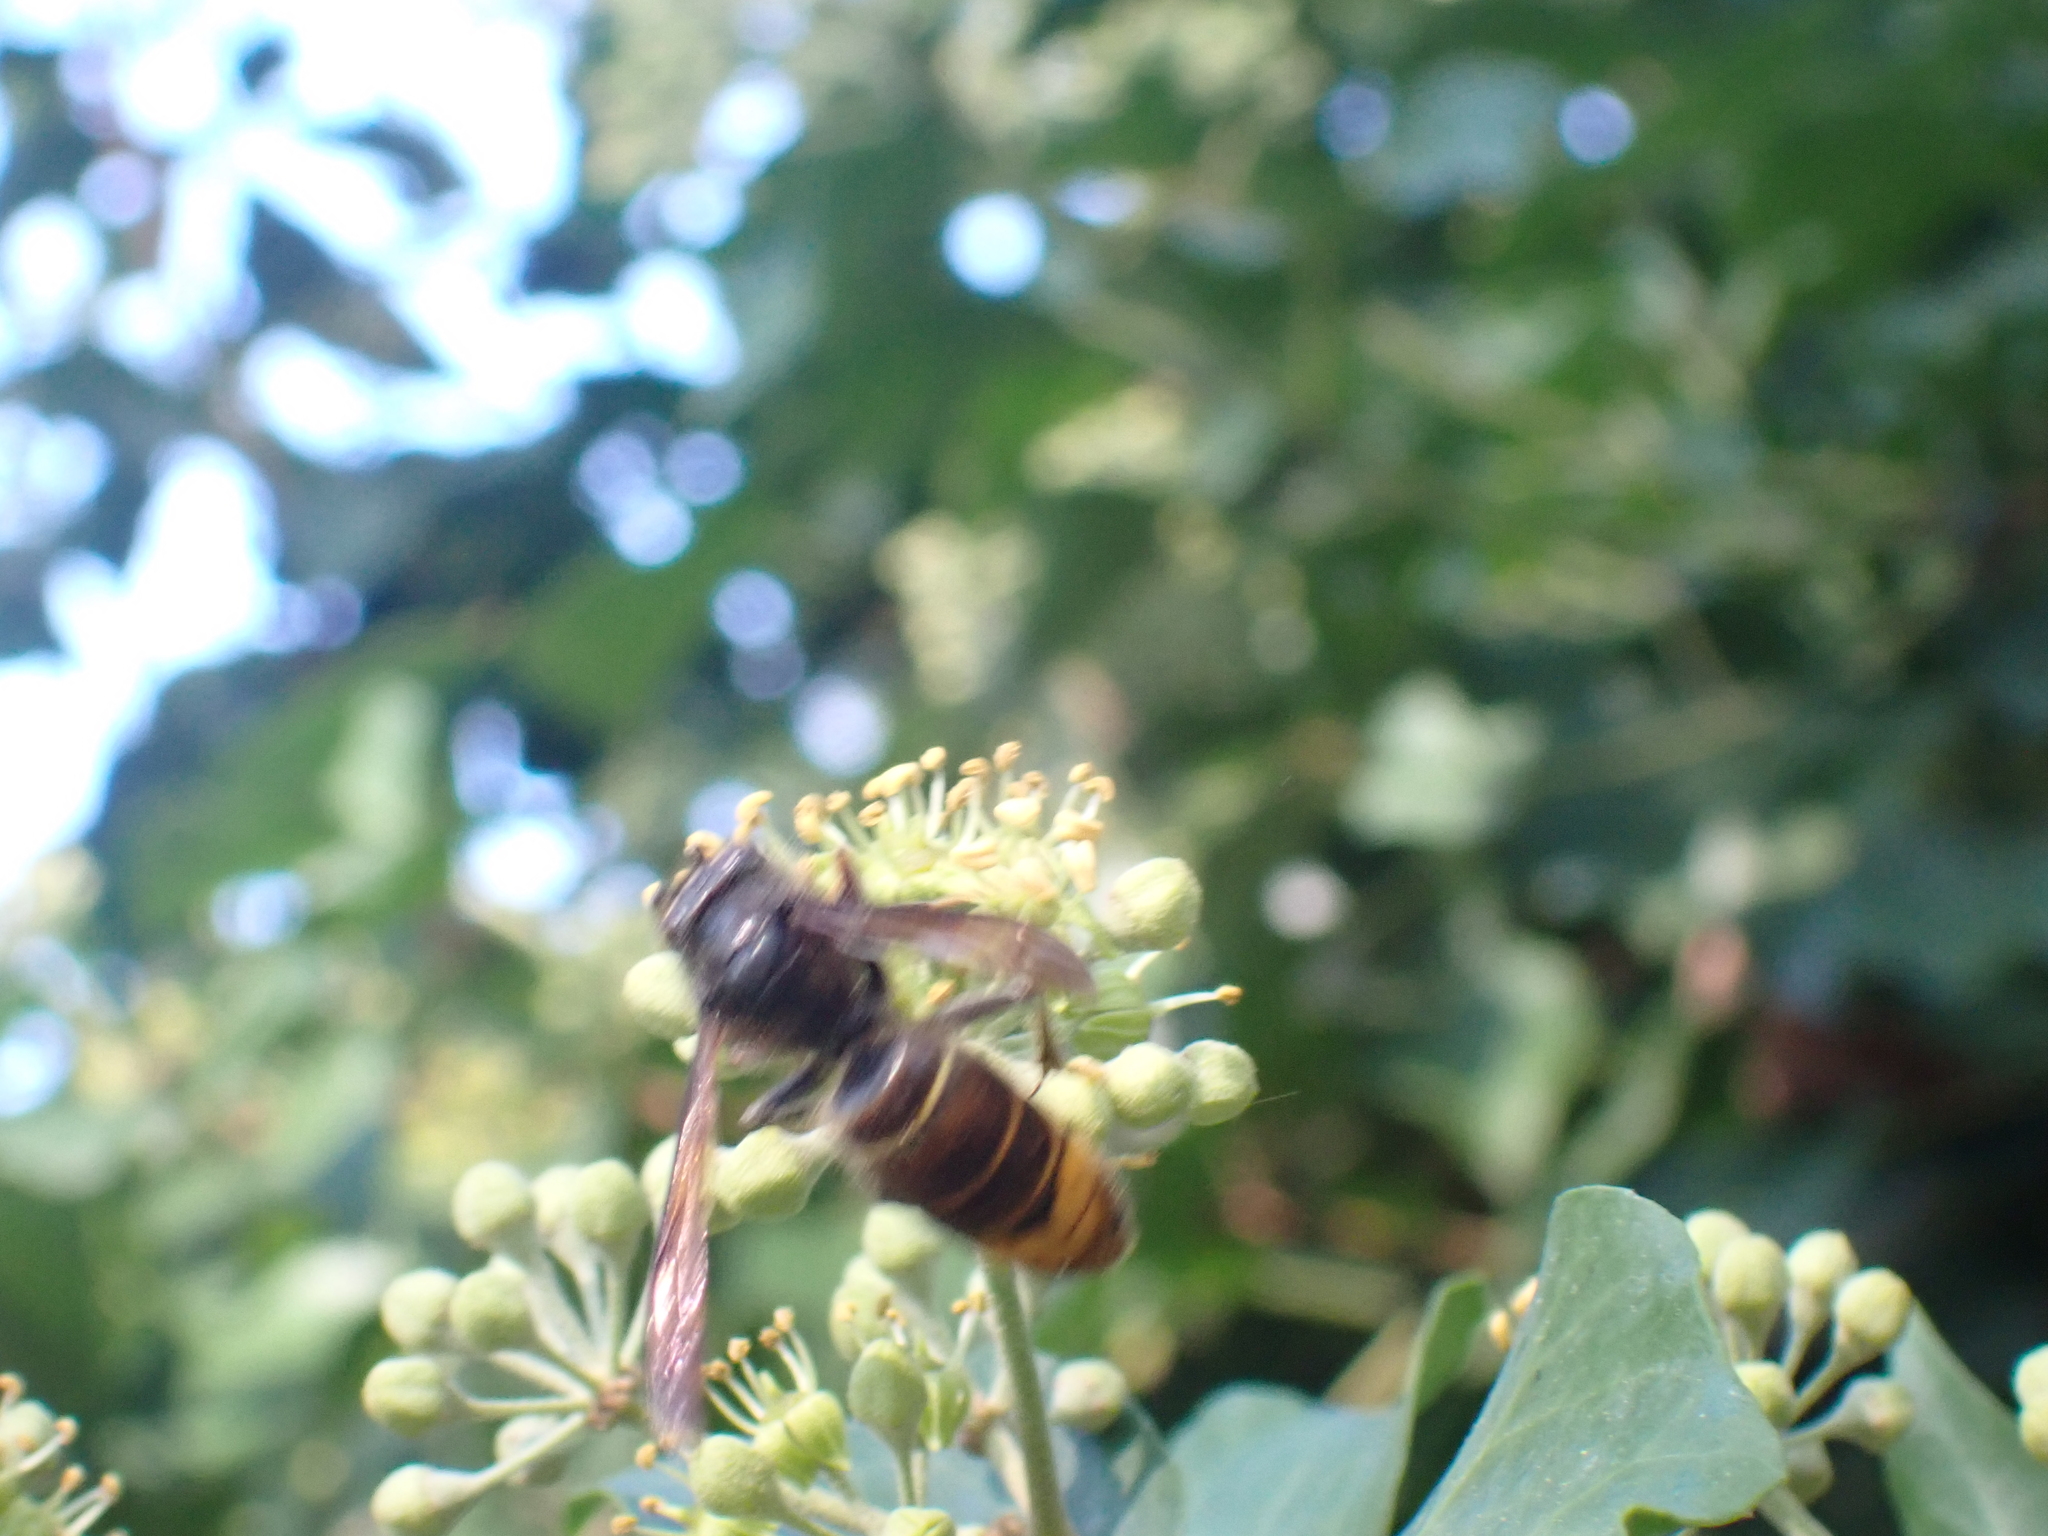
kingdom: Animalia
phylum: Arthropoda
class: Insecta
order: Hymenoptera
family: Vespidae
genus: Vespa
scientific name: Vespa velutina
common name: Asian hornet
